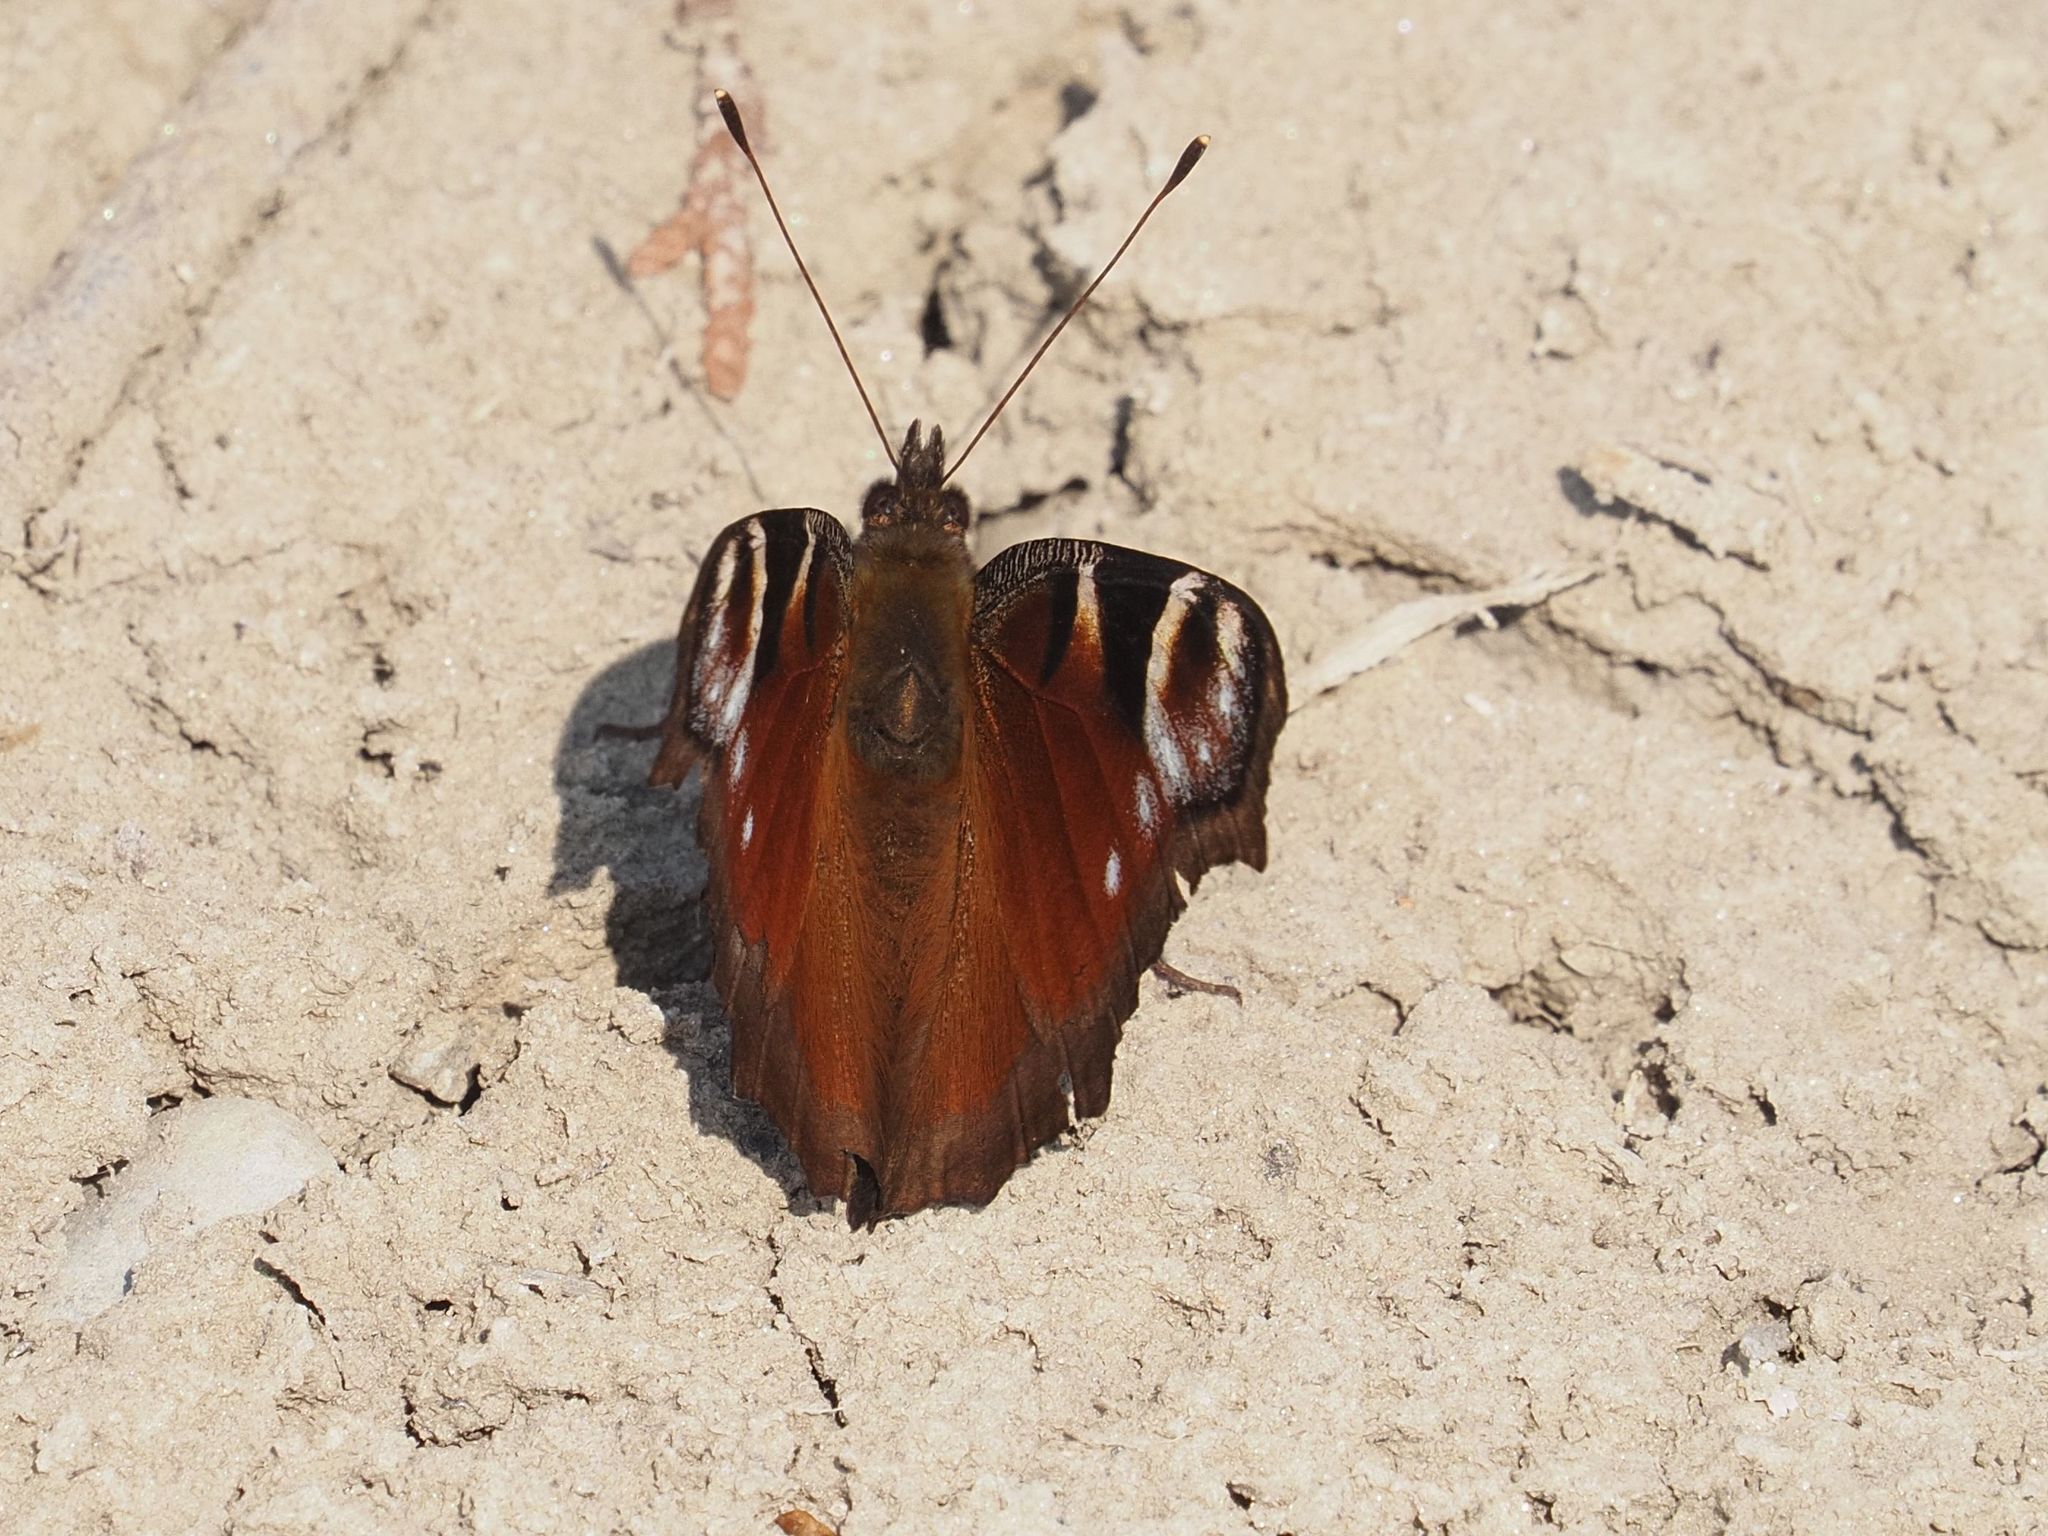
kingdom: Animalia
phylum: Arthropoda
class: Insecta
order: Lepidoptera
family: Nymphalidae
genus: Aglais
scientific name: Aglais io
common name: Peacock
